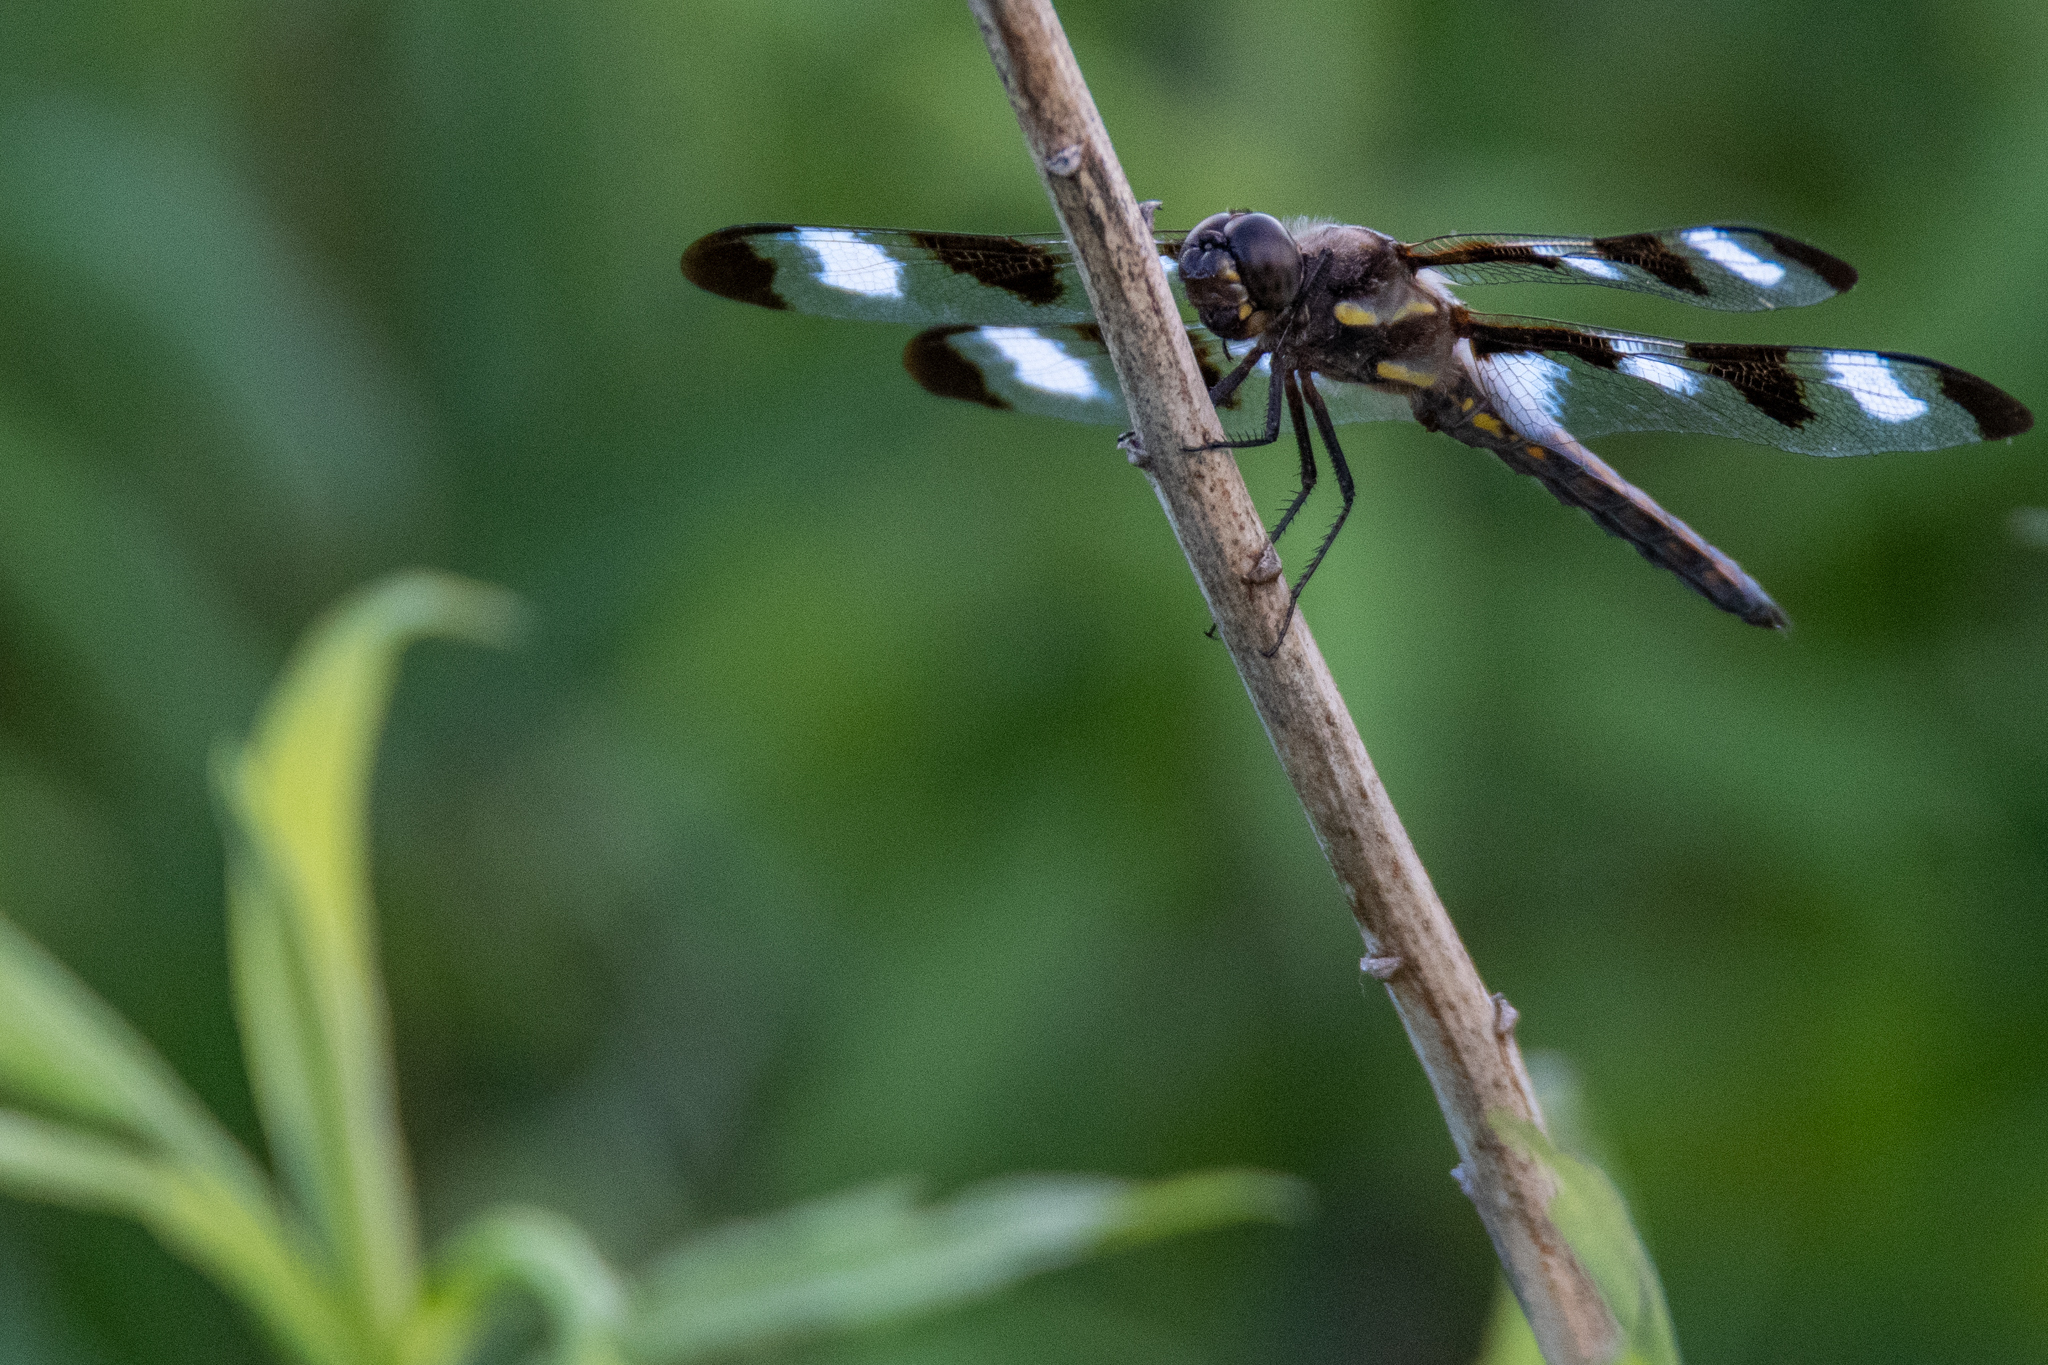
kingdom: Animalia
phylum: Arthropoda
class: Insecta
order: Odonata
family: Libellulidae
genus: Libellula
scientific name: Libellula pulchella
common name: Twelve-spotted skimmer
